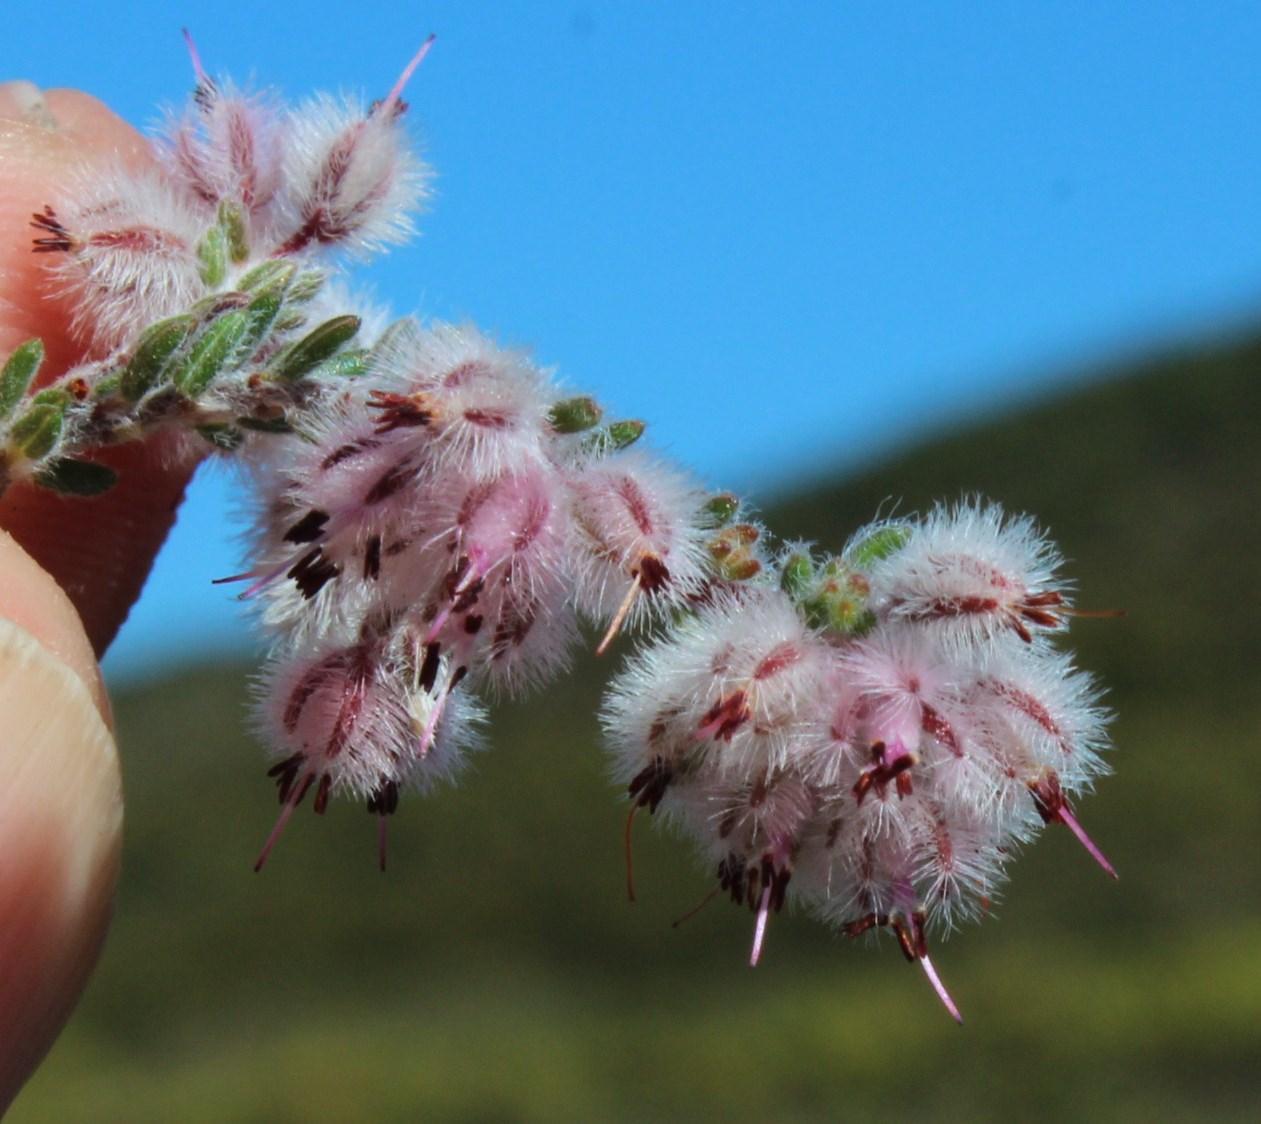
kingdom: Plantae
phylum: Tracheophyta
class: Magnoliopsida
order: Ericales
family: Ericaceae
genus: Erica
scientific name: Erica pilosiflora
